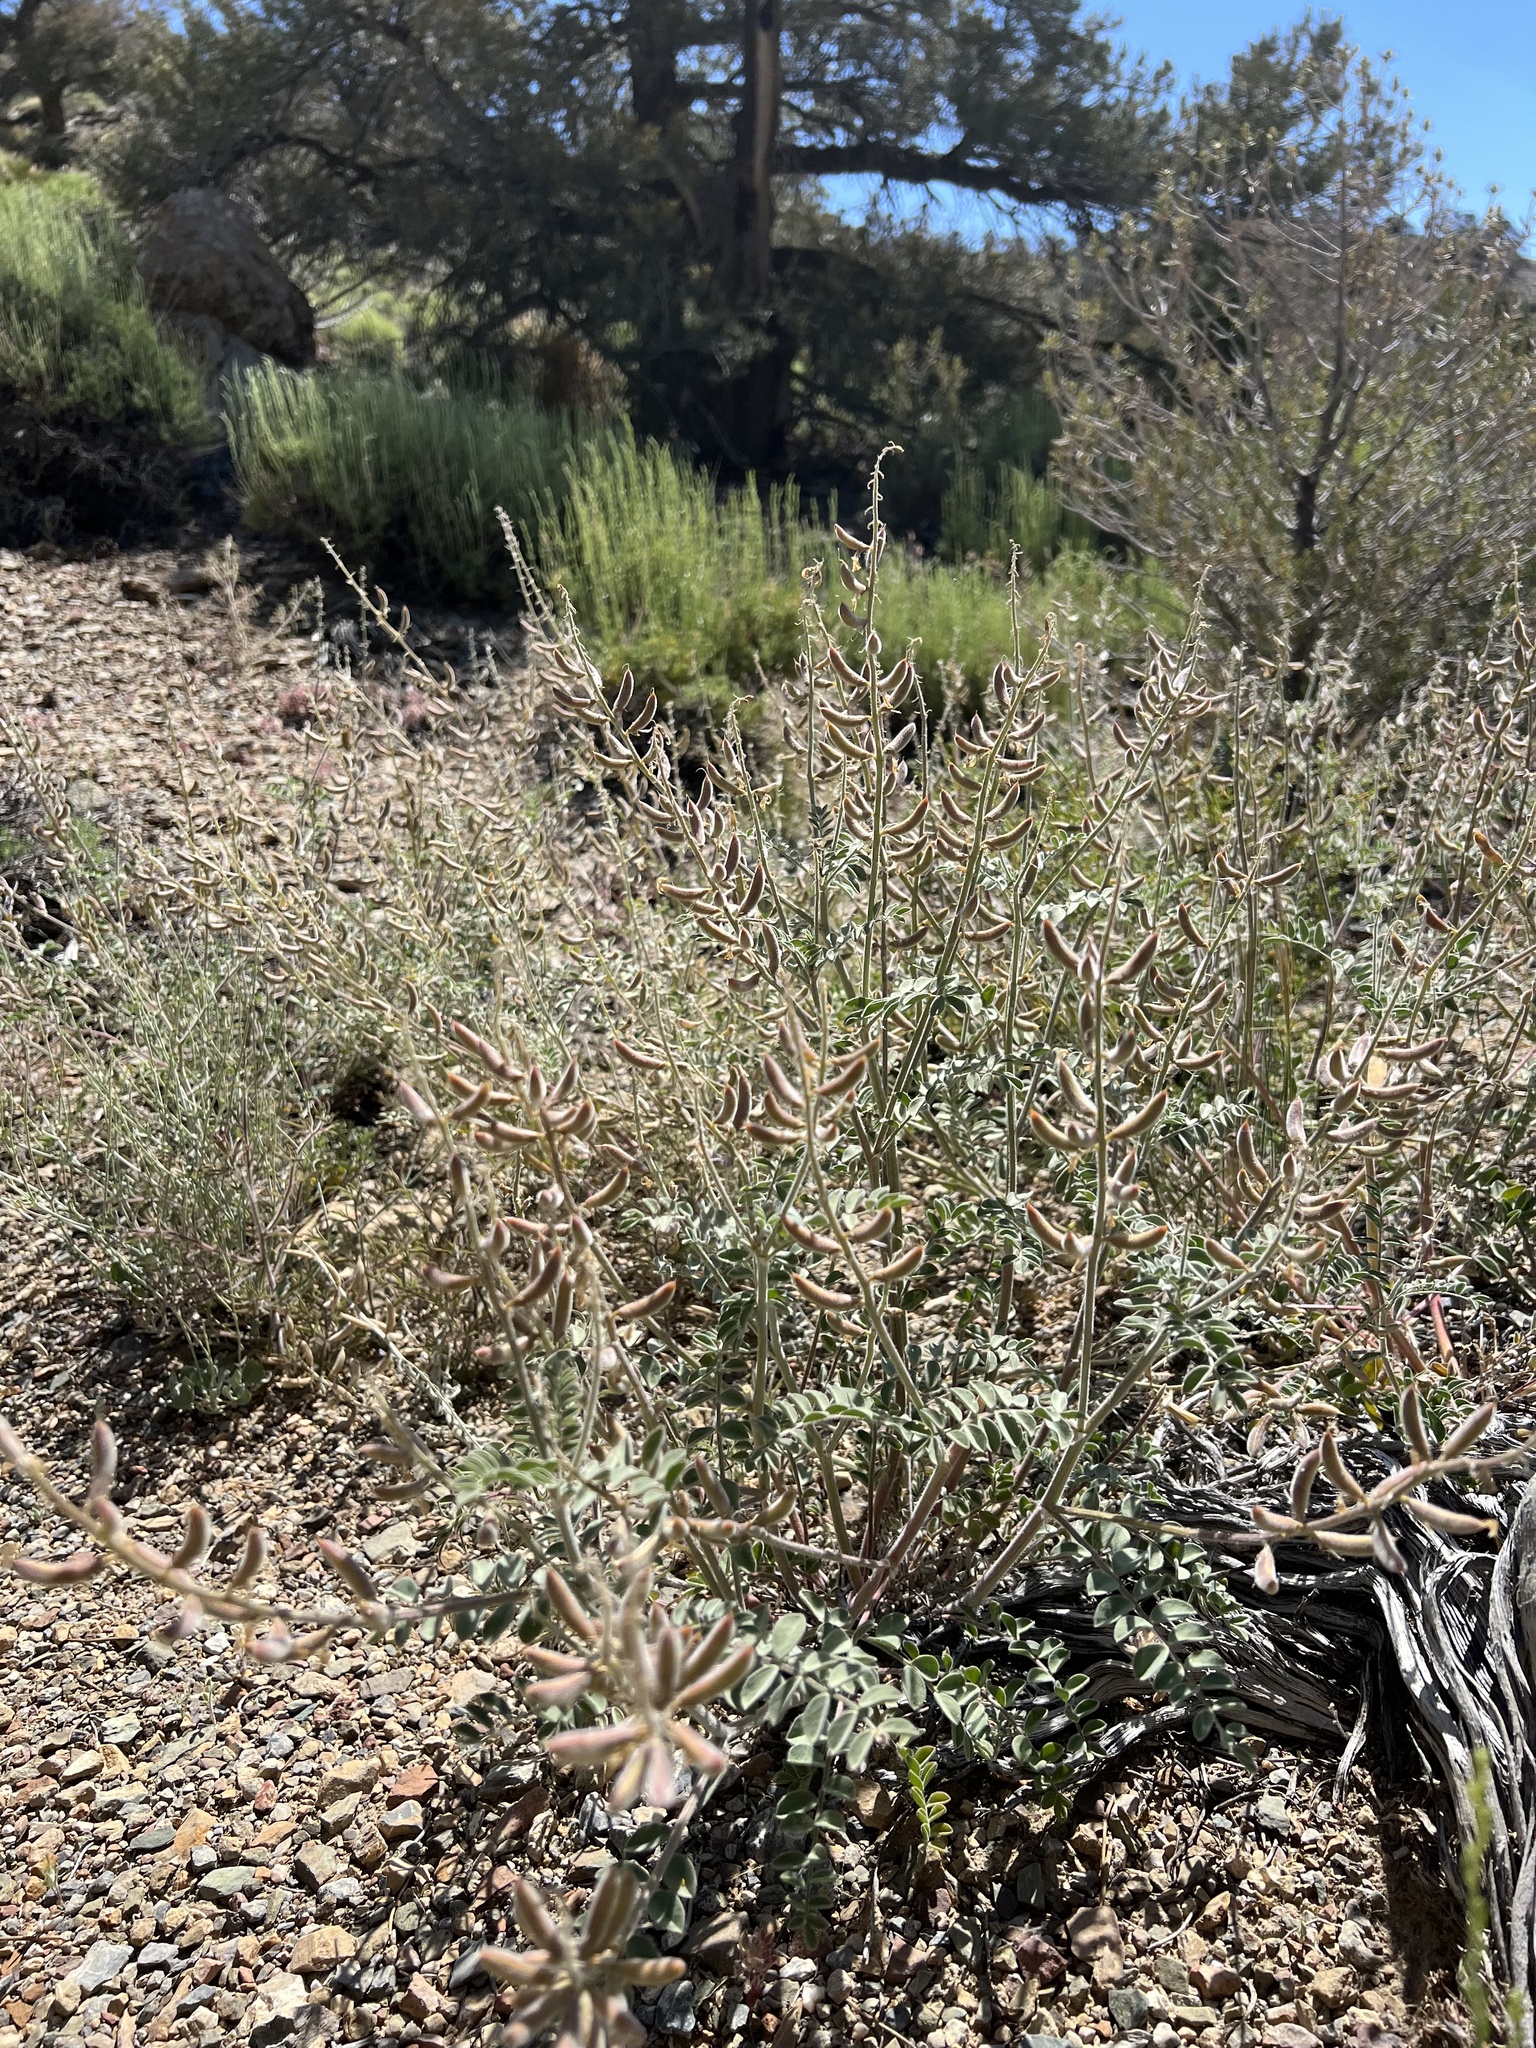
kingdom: Plantae
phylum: Tracheophyta
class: Magnoliopsida
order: Fabales
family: Fabaceae
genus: Astragalus
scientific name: Astragalus minthorniae
